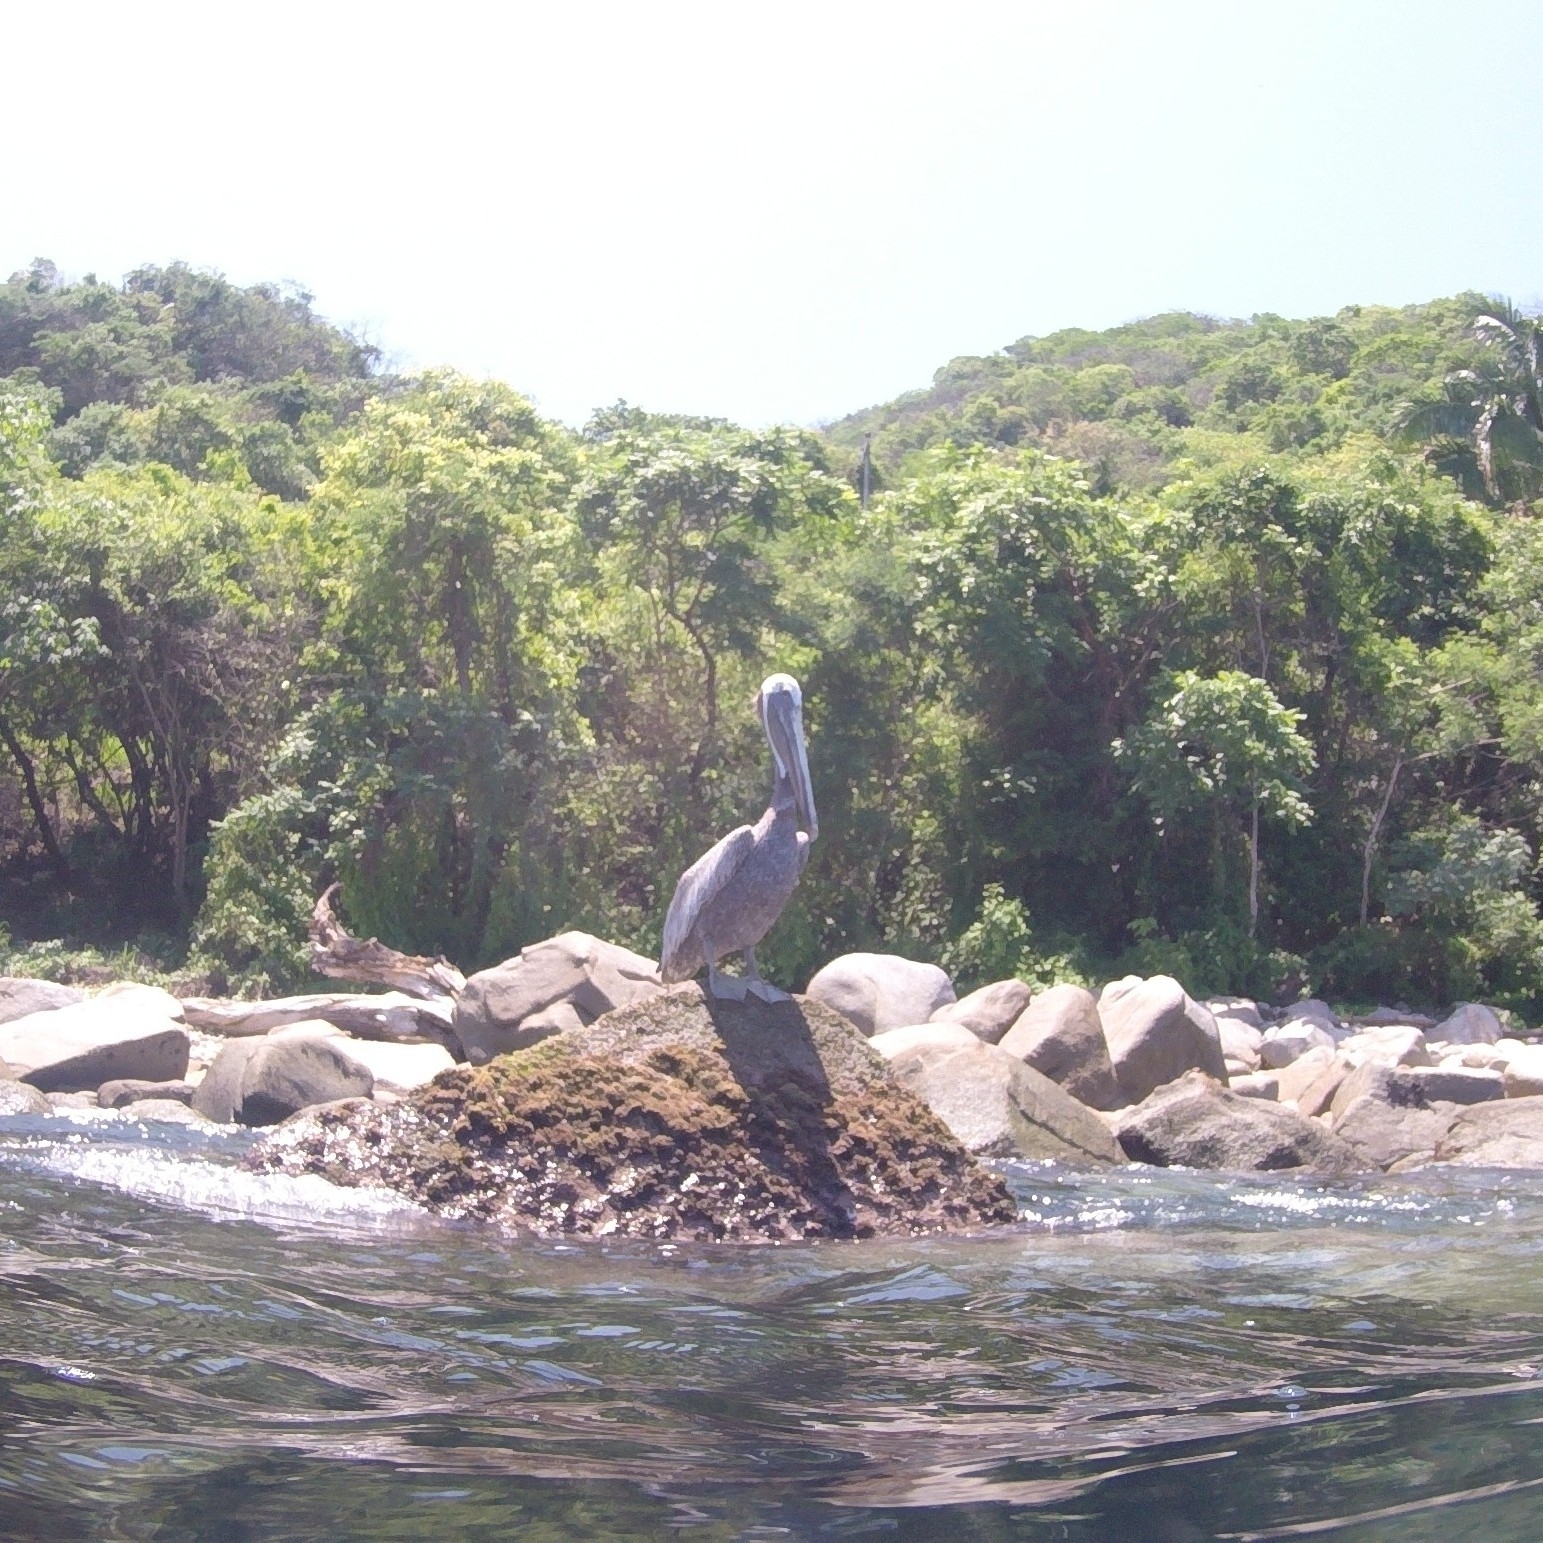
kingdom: Animalia
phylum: Chordata
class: Aves
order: Pelecaniformes
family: Pelecanidae
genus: Pelecanus
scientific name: Pelecanus occidentalis
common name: Brown pelican
